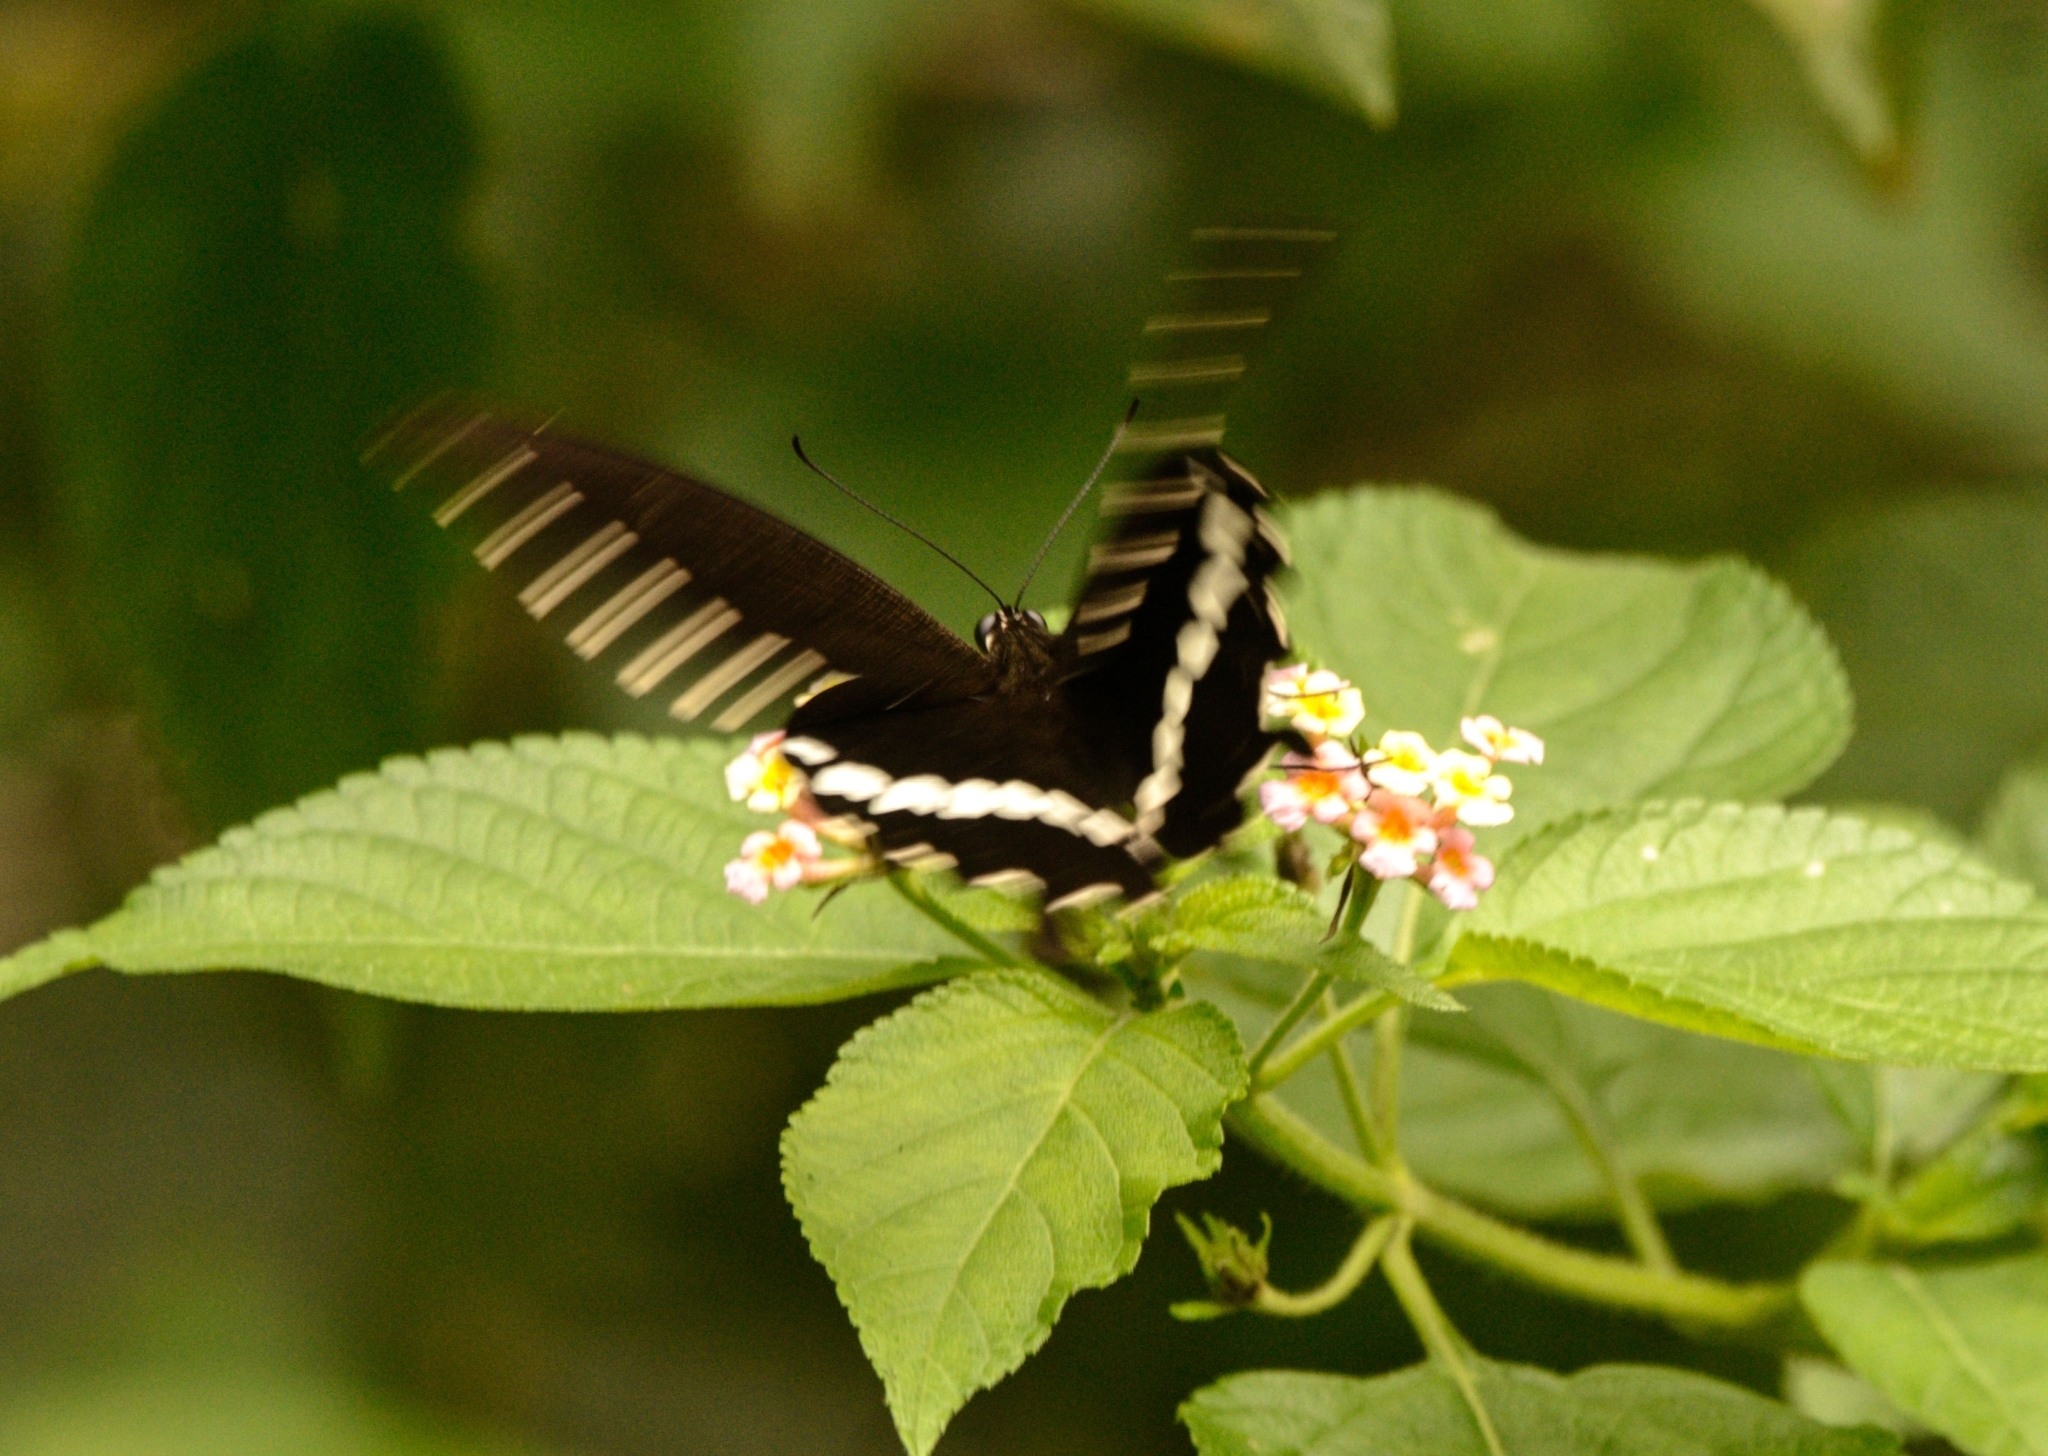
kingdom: Animalia
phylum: Arthropoda
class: Insecta
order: Lepidoptera
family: Papilionidae
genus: Papilio
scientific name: Papilio polytes
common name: Common mormon
